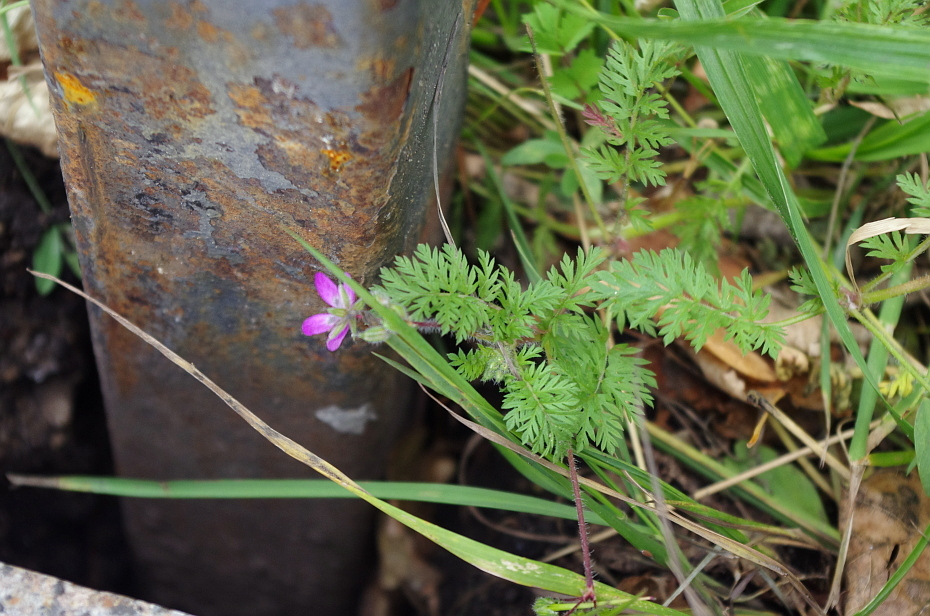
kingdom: Plantae
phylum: Tracheophyta
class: Magnoliopsida
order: Geraniales
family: Geraniaceae
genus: Erodium
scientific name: Erodium cicutarium
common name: Common stork's-bill
